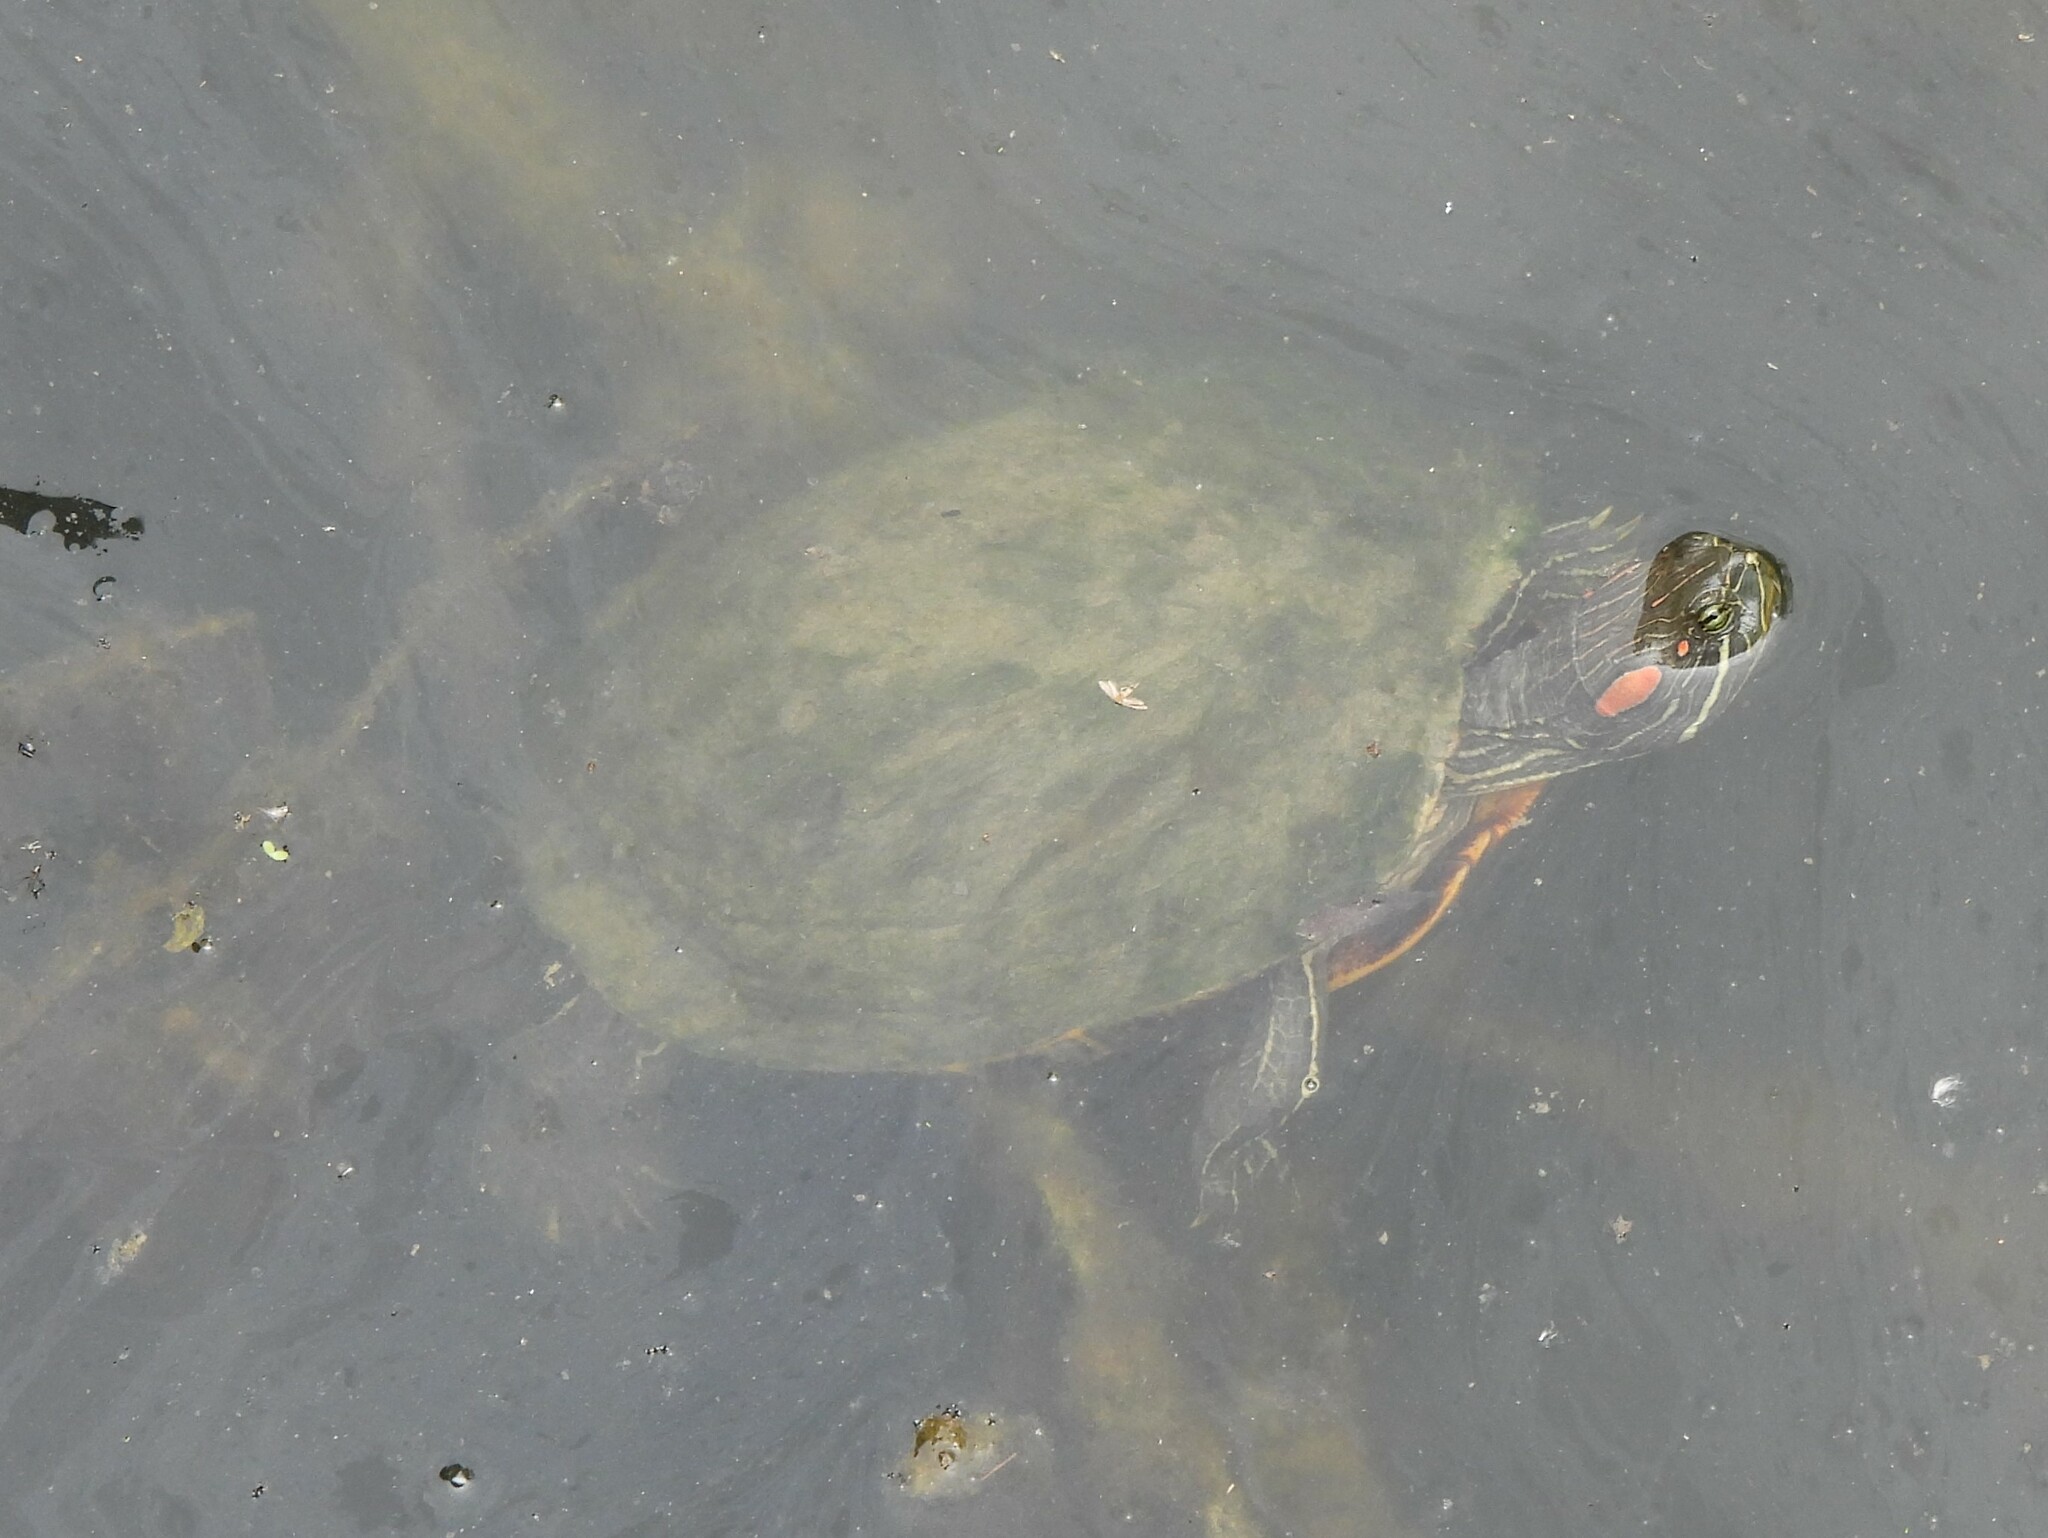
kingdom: Animalia
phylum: Chordata
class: Testudines
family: Emydidae
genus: Trachemys
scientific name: Trachemys scripta
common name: Slider
